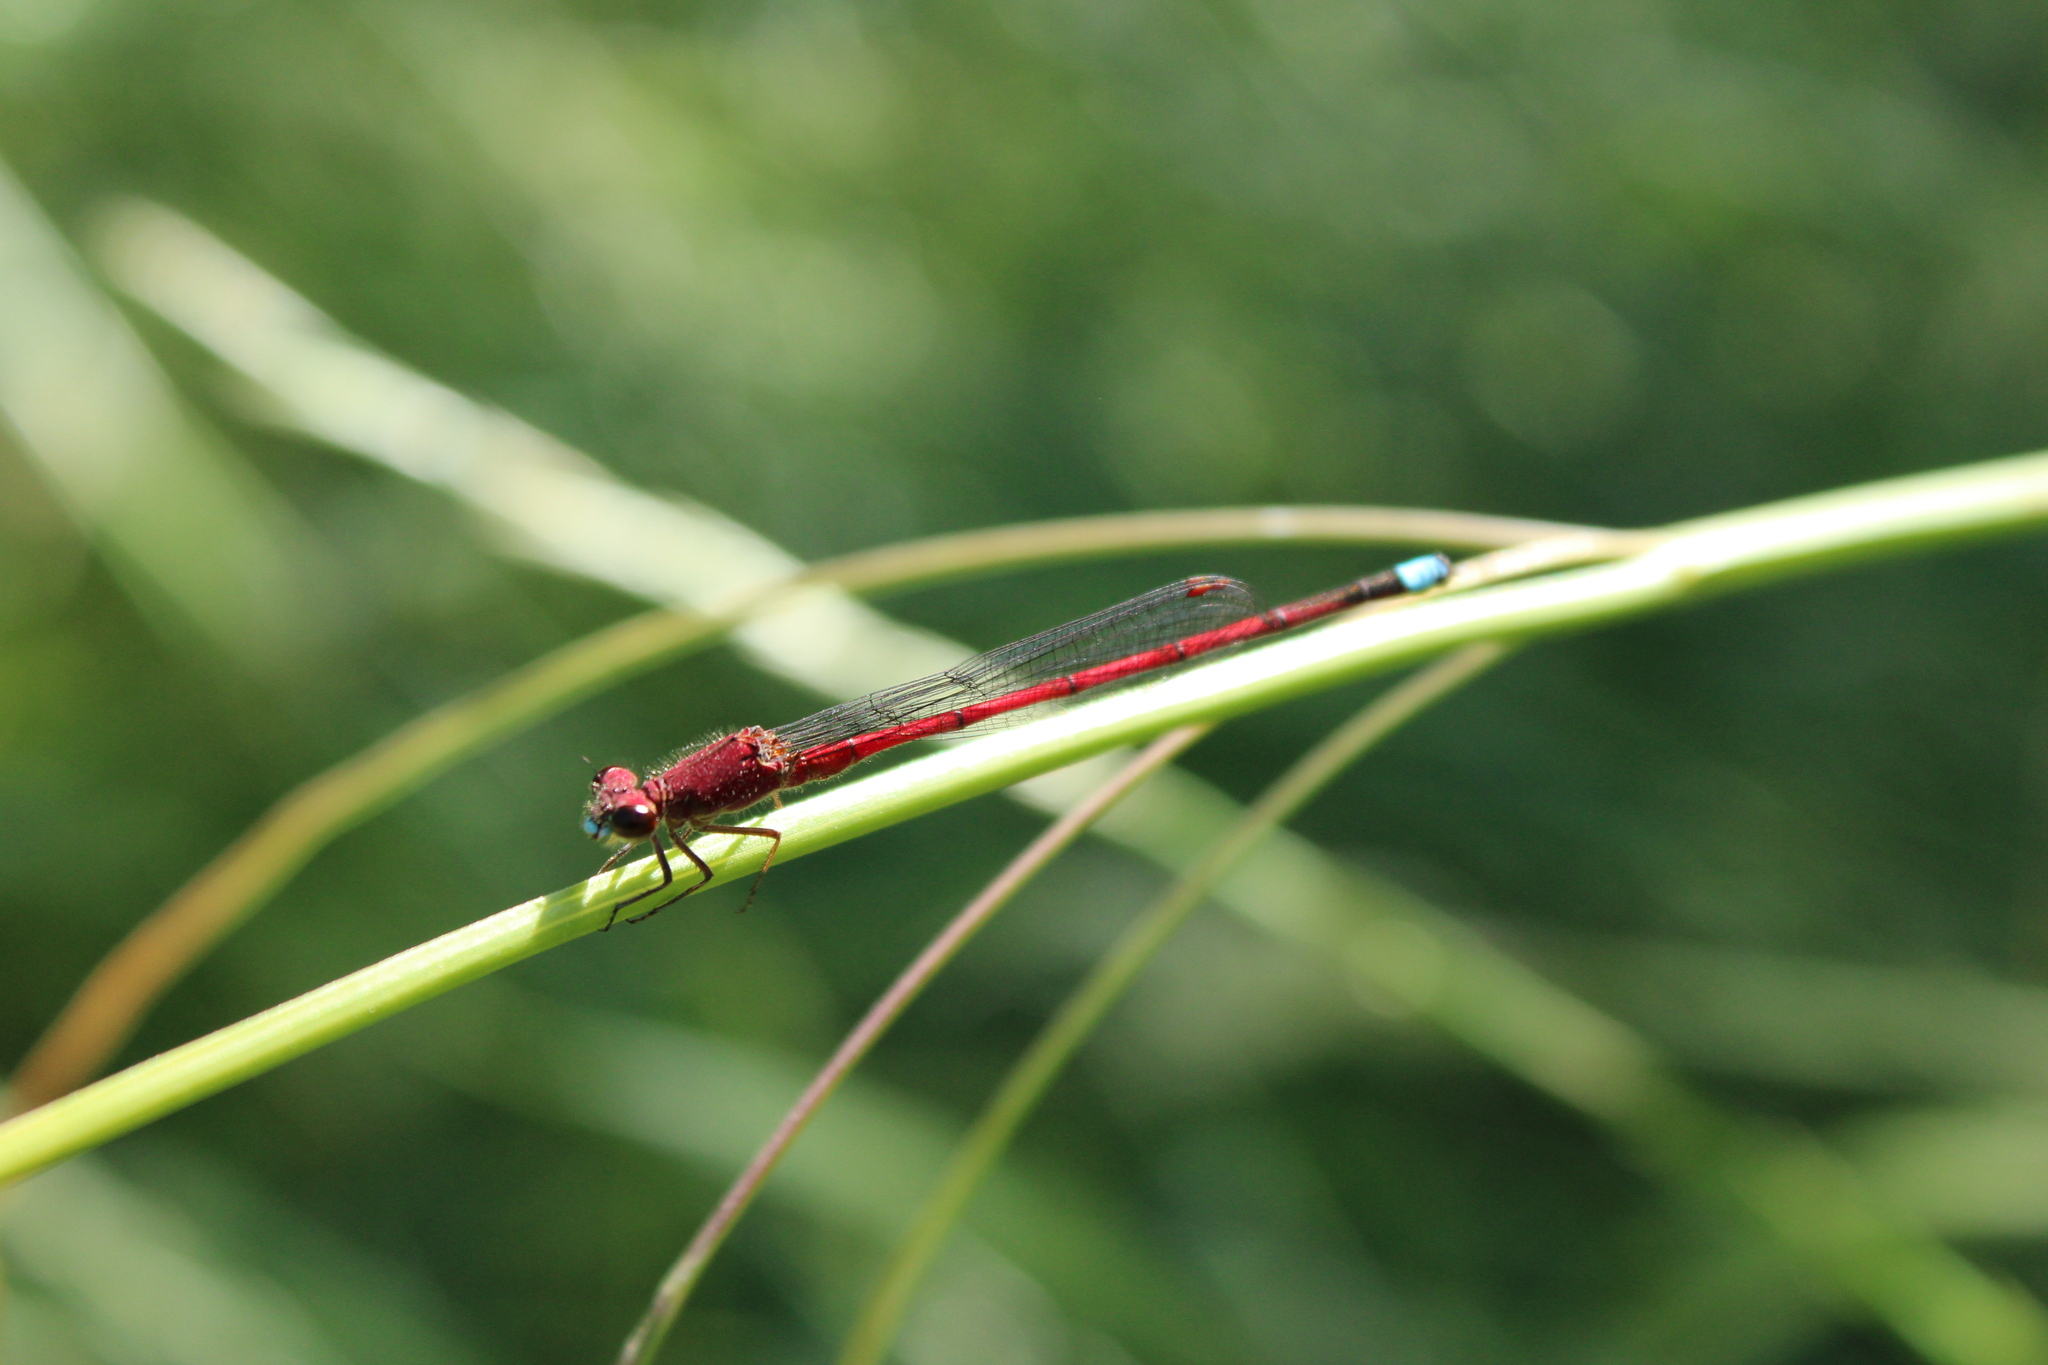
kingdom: Animalia
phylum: Arthropoda
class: Insecta
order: Odonata
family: Coenagrionidae
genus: Oxyagrion
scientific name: Oxyagrion terminale
